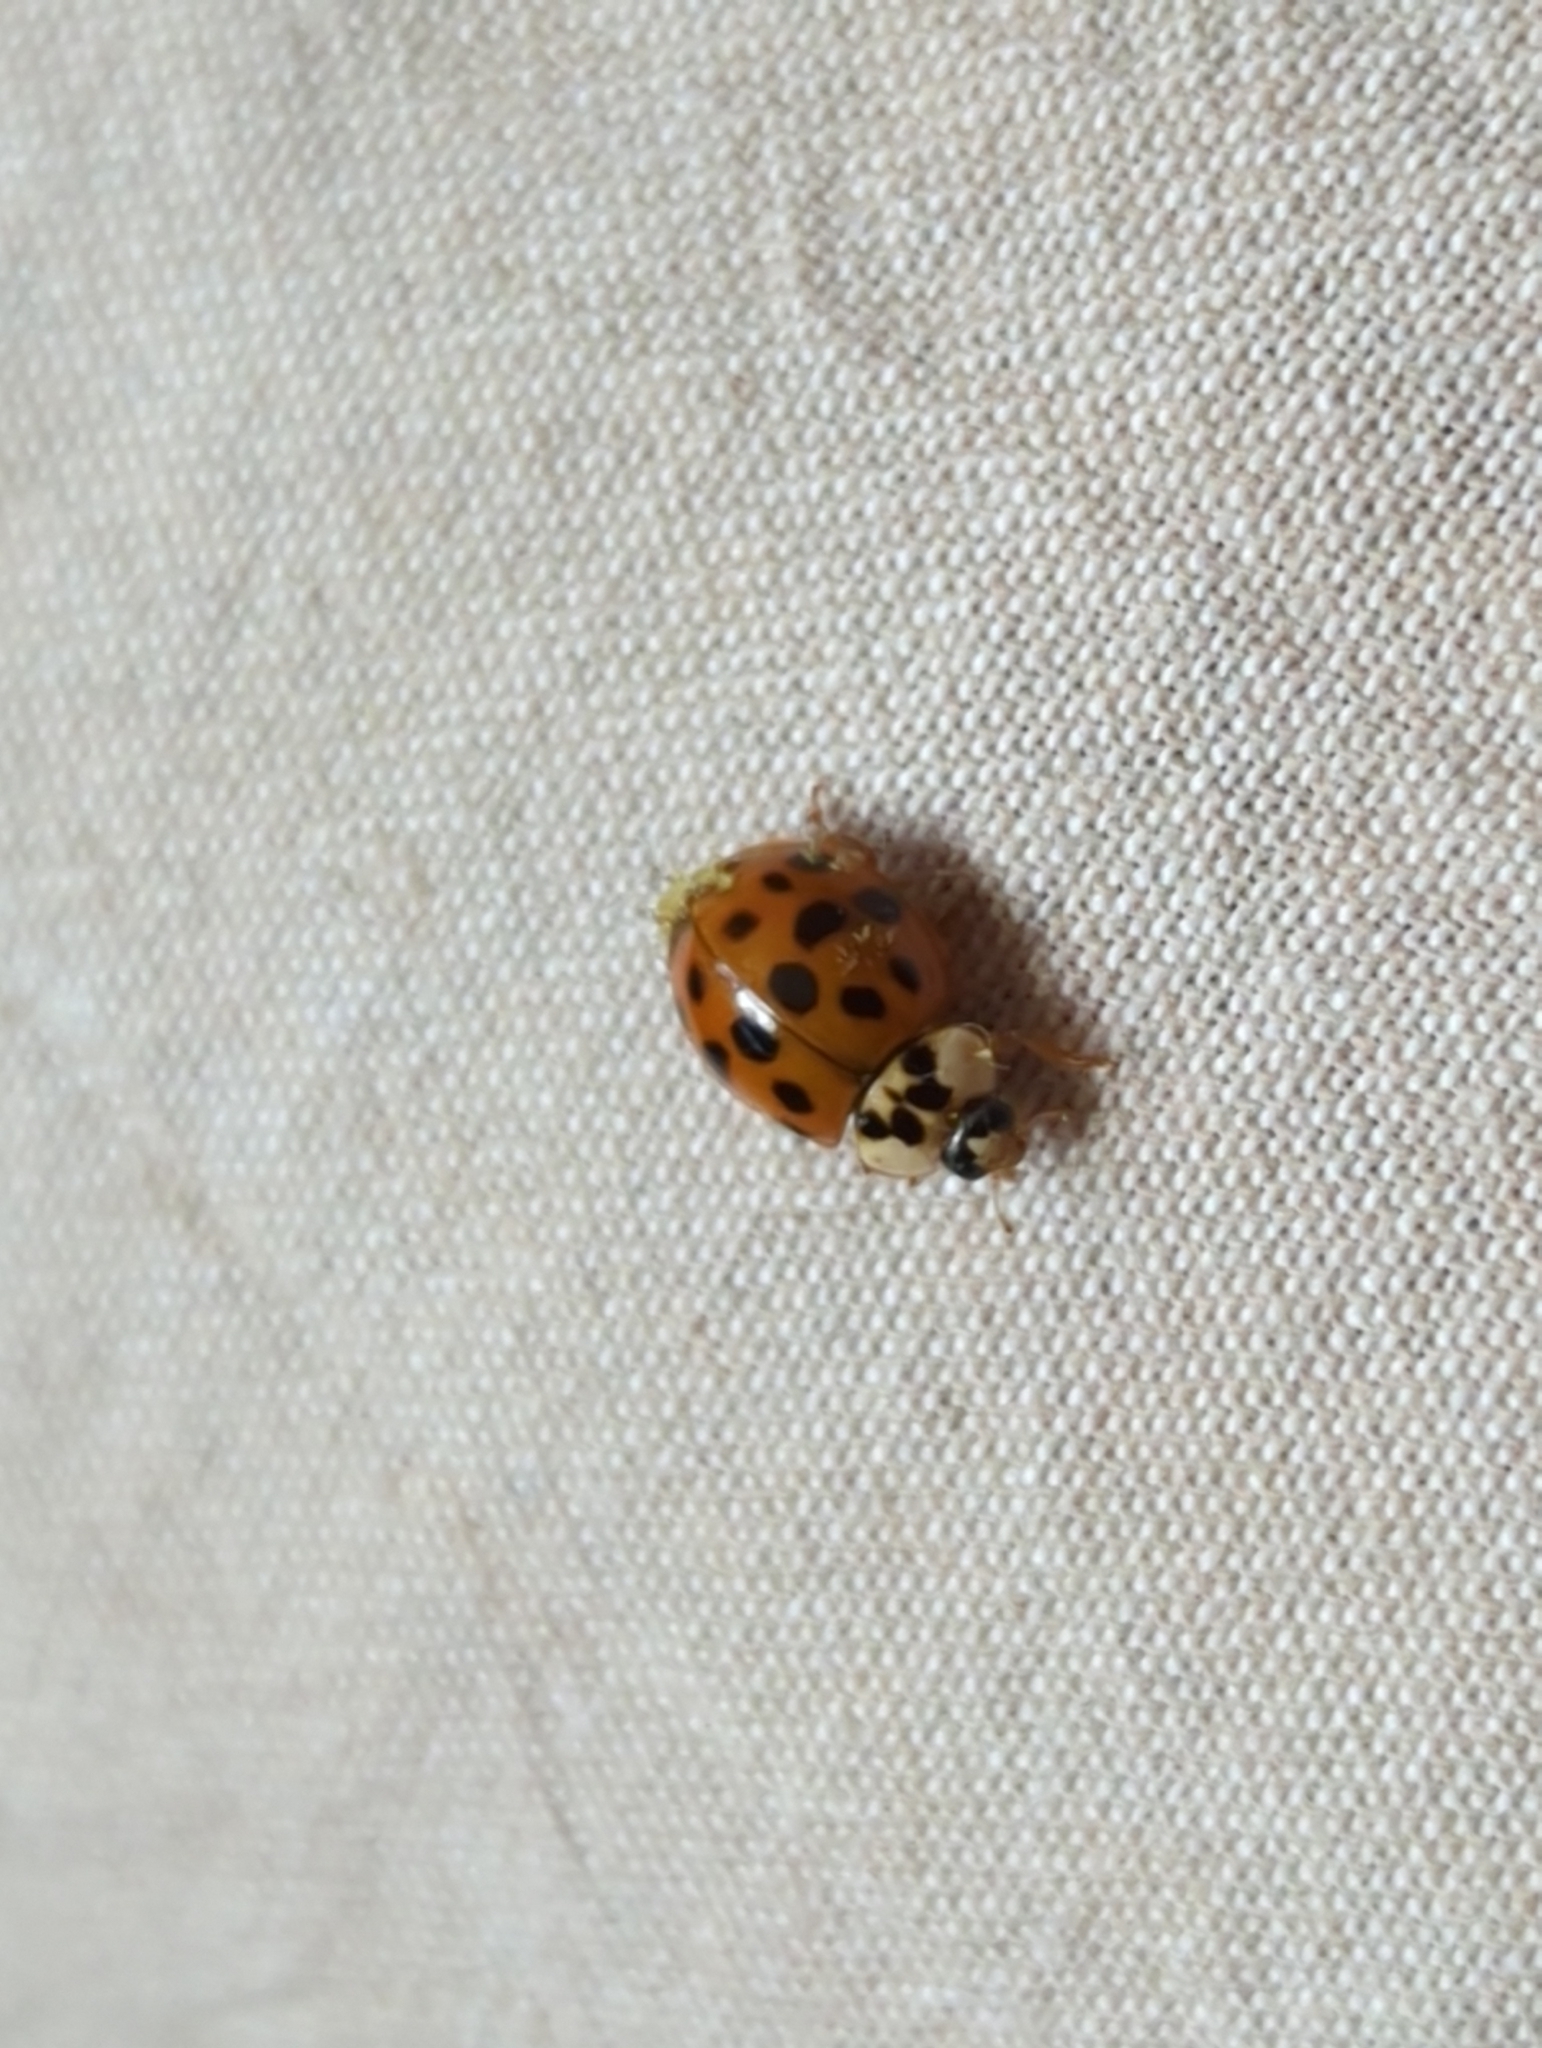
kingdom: Animalia
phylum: Arthropoda
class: Insecta
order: Coleoptera
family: Coccinellidae
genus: Harmonia
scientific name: Harmonia axyridis
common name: Harlequin ladybird
